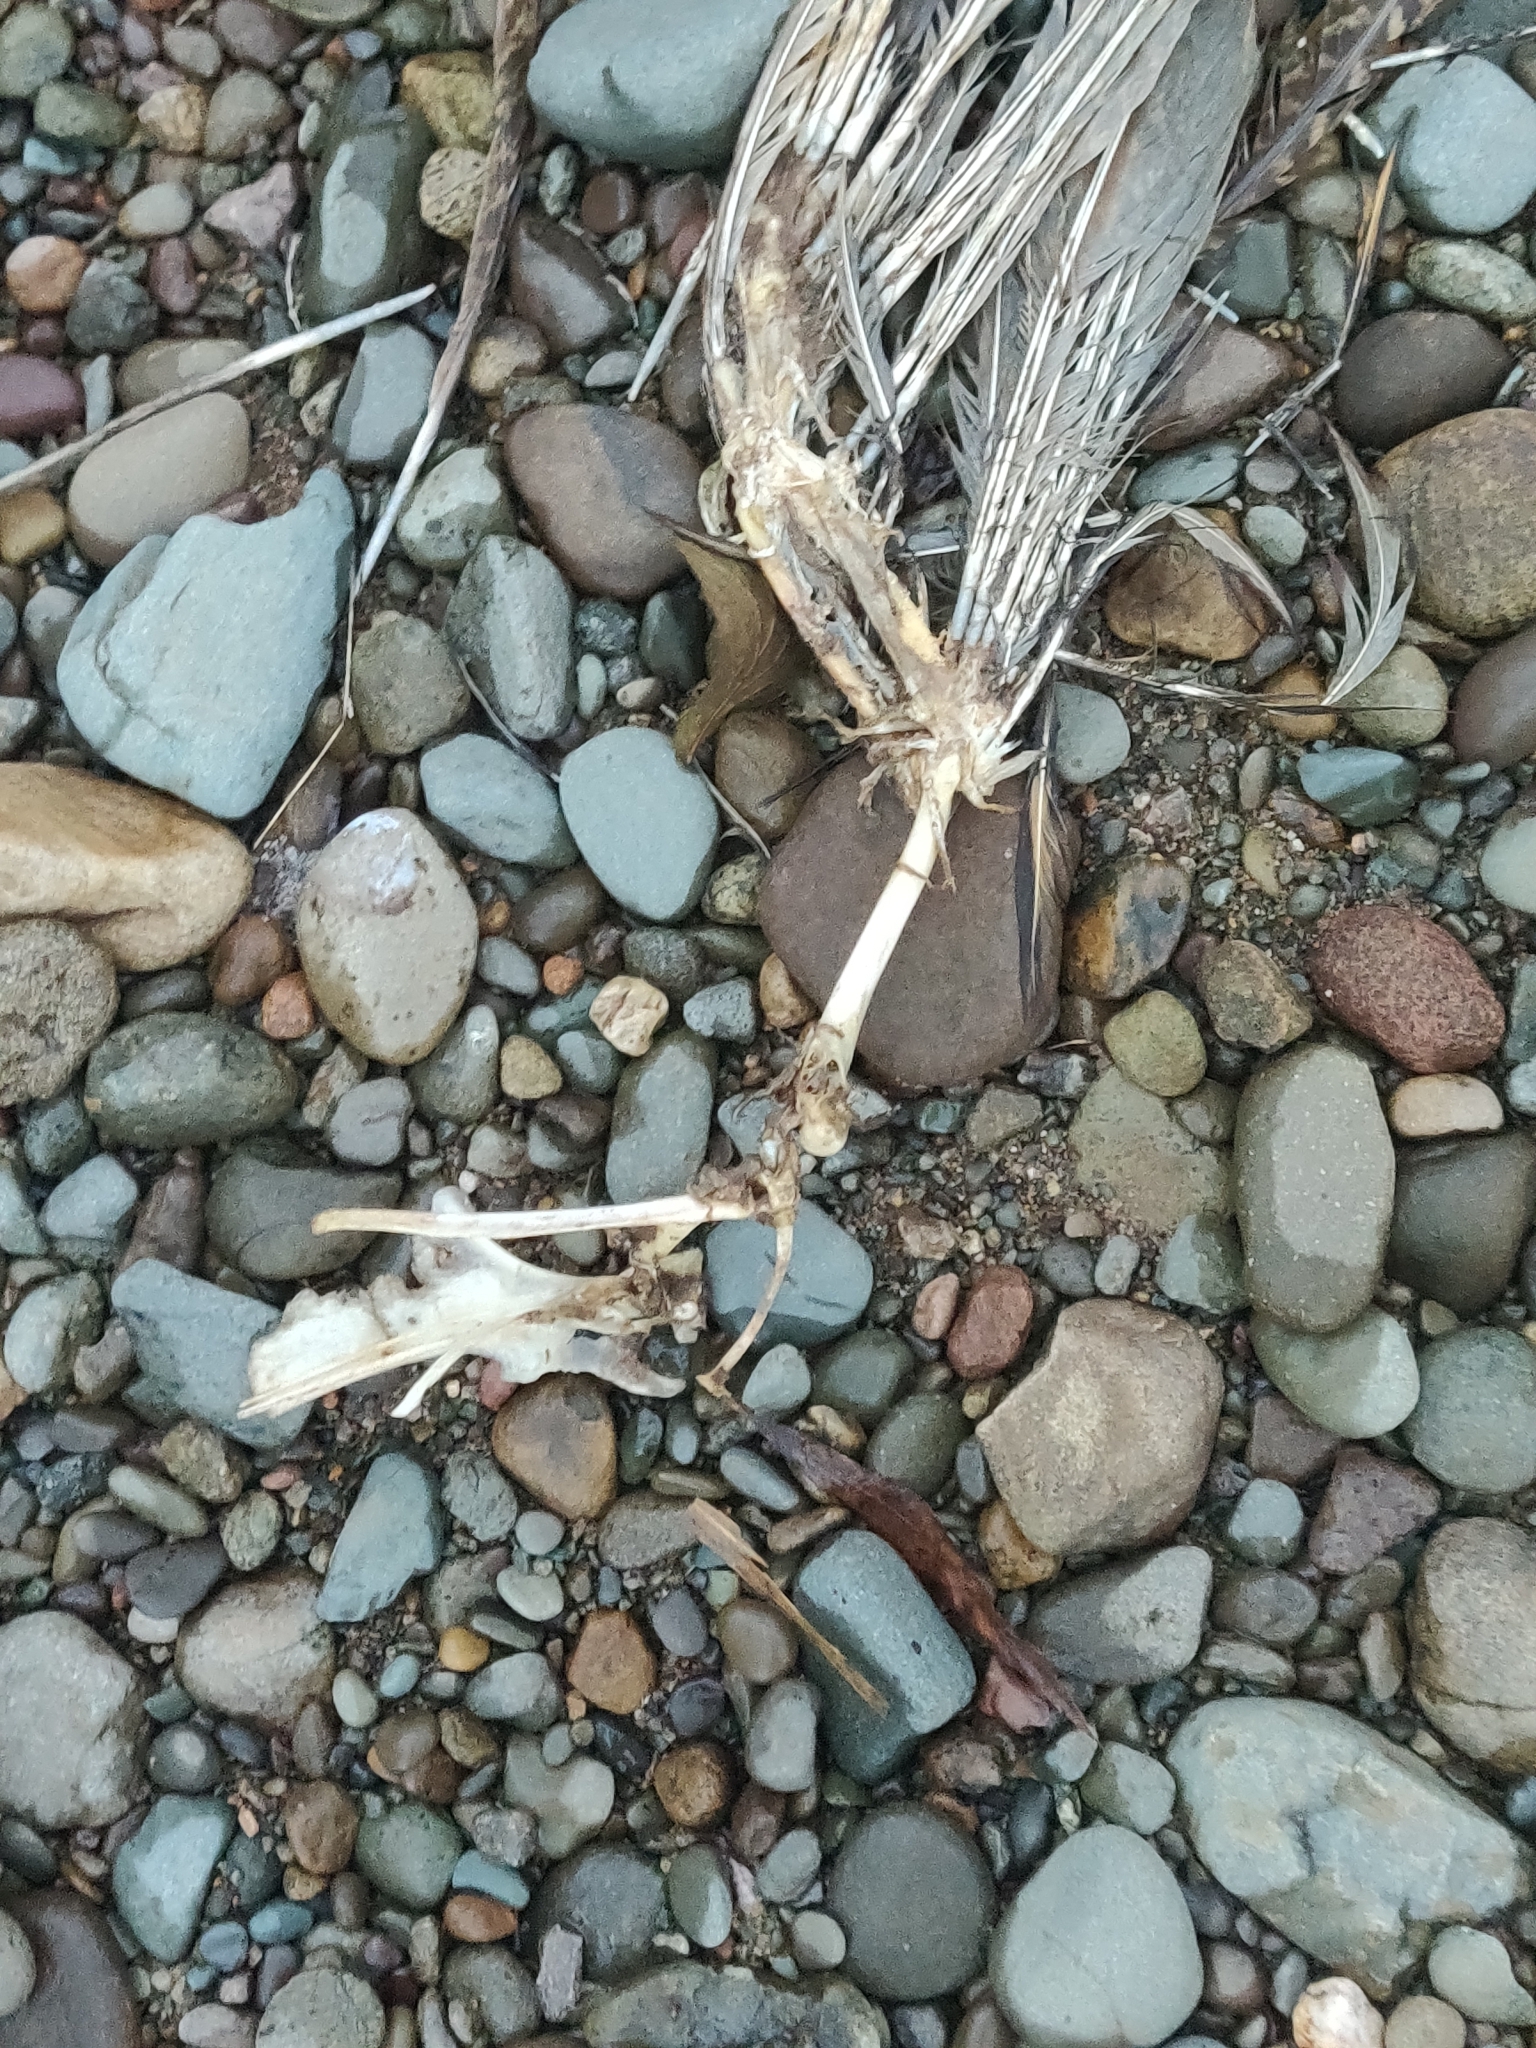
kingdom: Animalia
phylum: Chordata
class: Aves
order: Galliformes
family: Phasianidae
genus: Phasianus
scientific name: Phasianus colchicus
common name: Common pheasant
